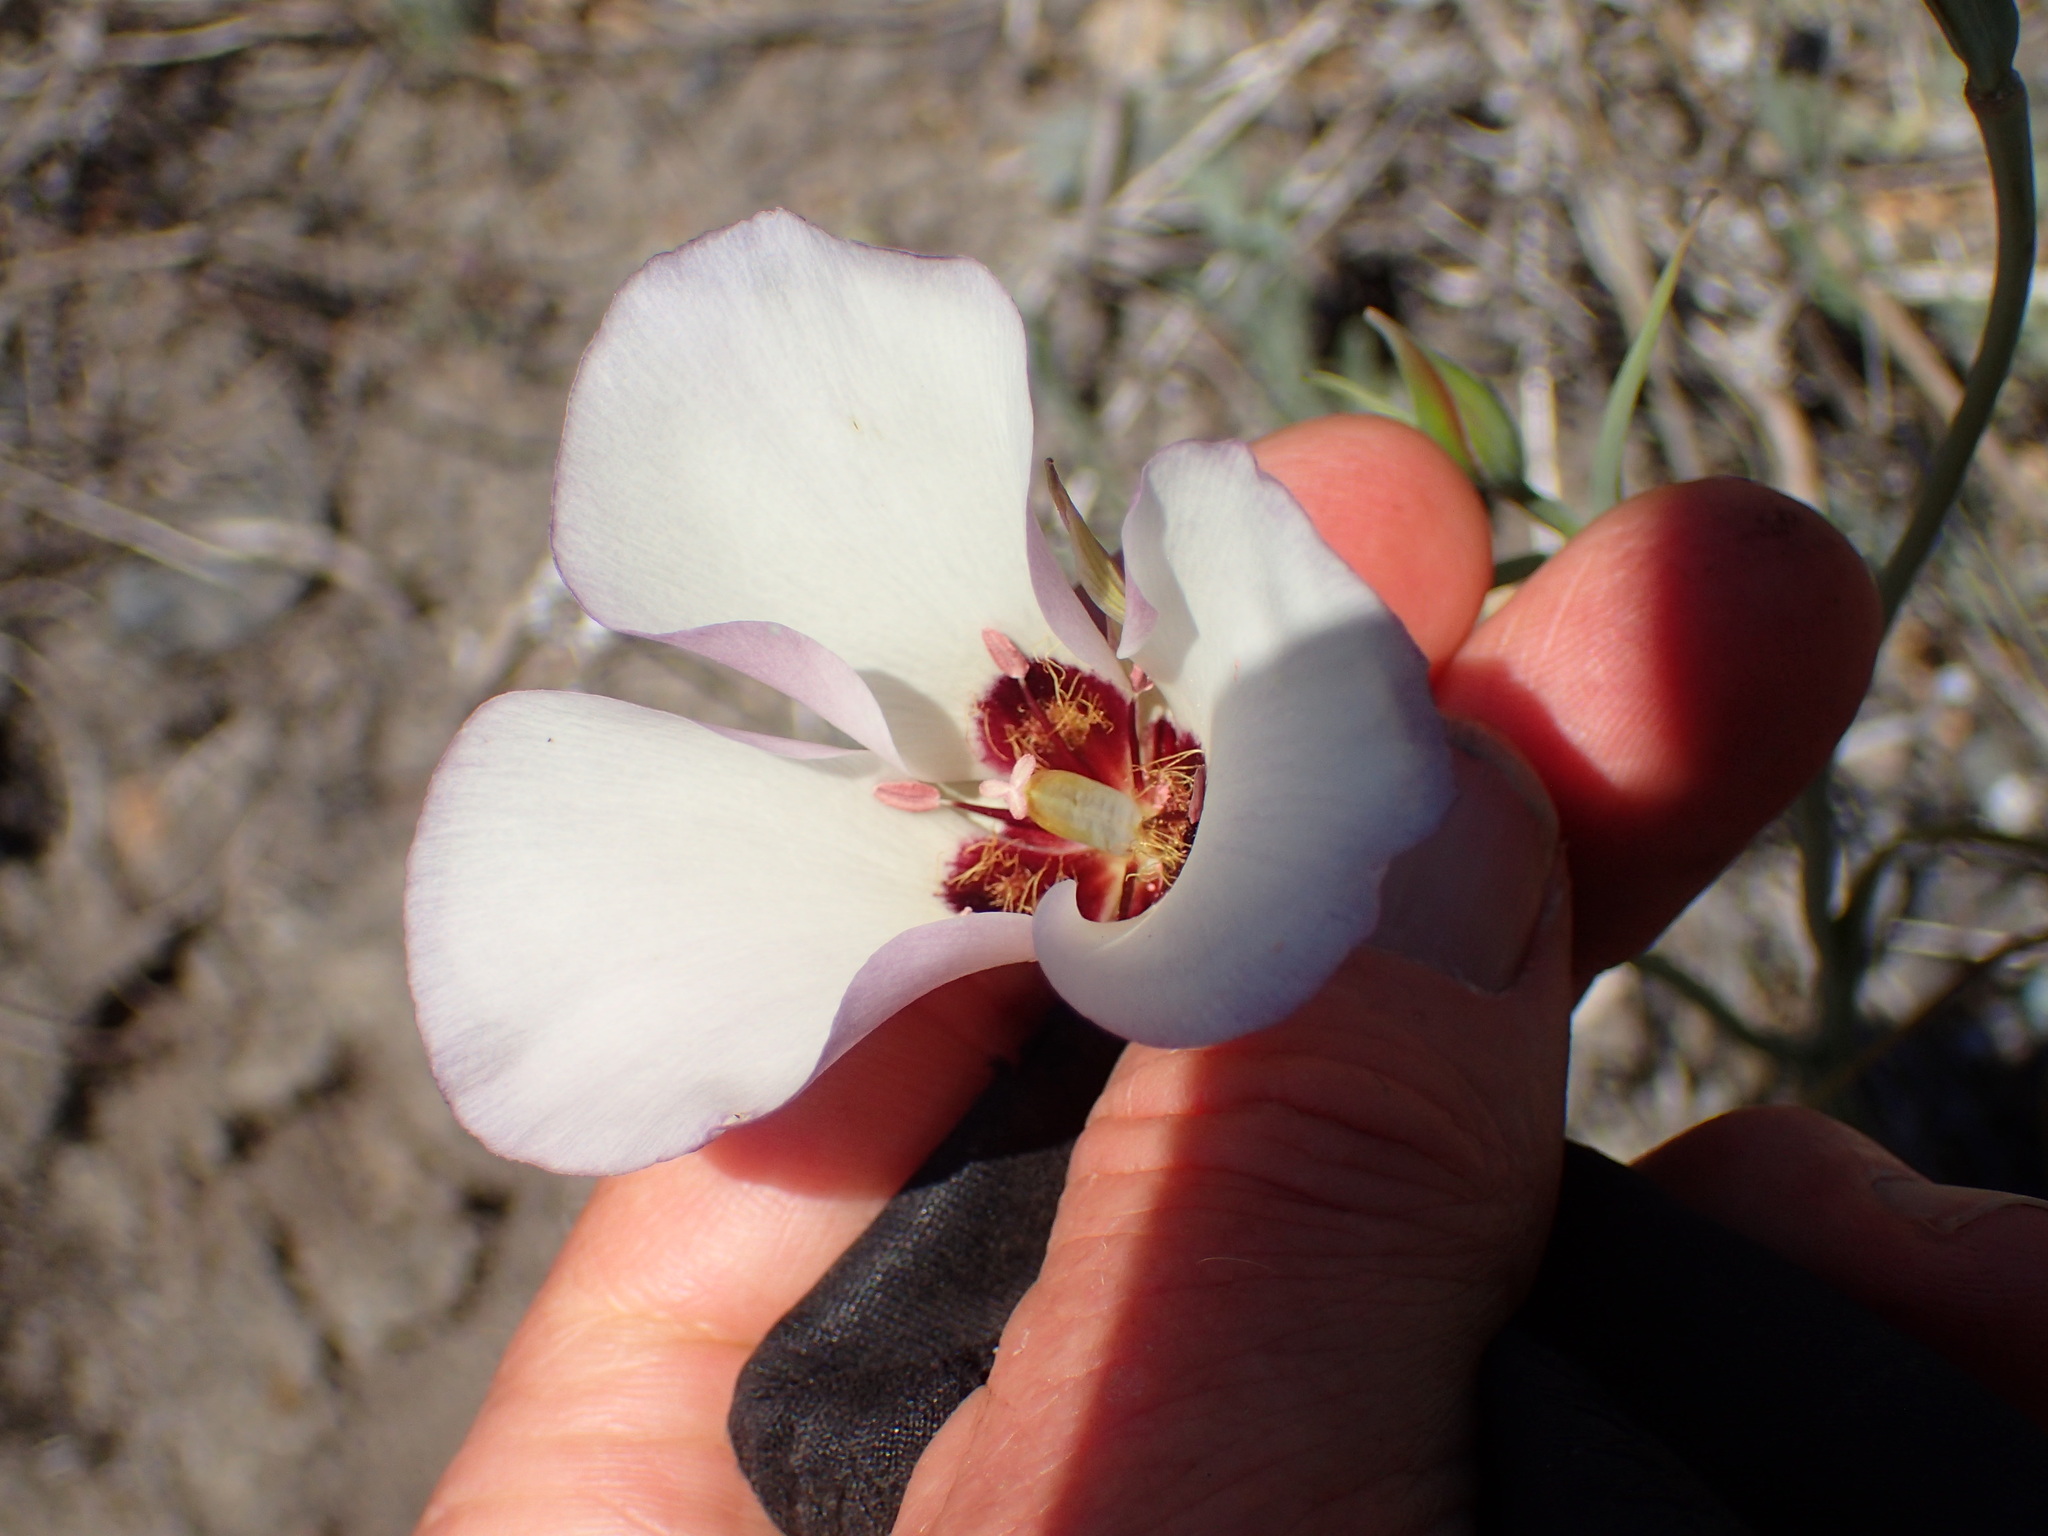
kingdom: Plantae
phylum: Tracheophyta
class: Liliopsida
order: Liliales
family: Liliaceae
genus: Calochortus
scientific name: Calochortus catalinae
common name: Catalina mariposa-lily
